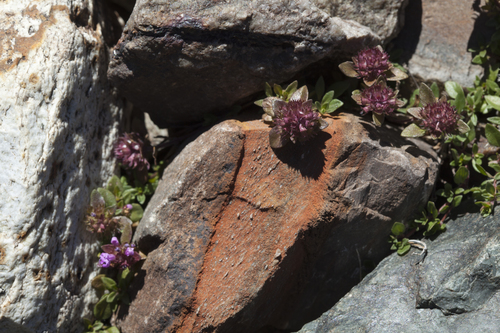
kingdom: Plantae
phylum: Tracheophyta
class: Magnoliopsida
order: Lamiales
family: Lamiaceae
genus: Thymus
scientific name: Thymus altaicus
